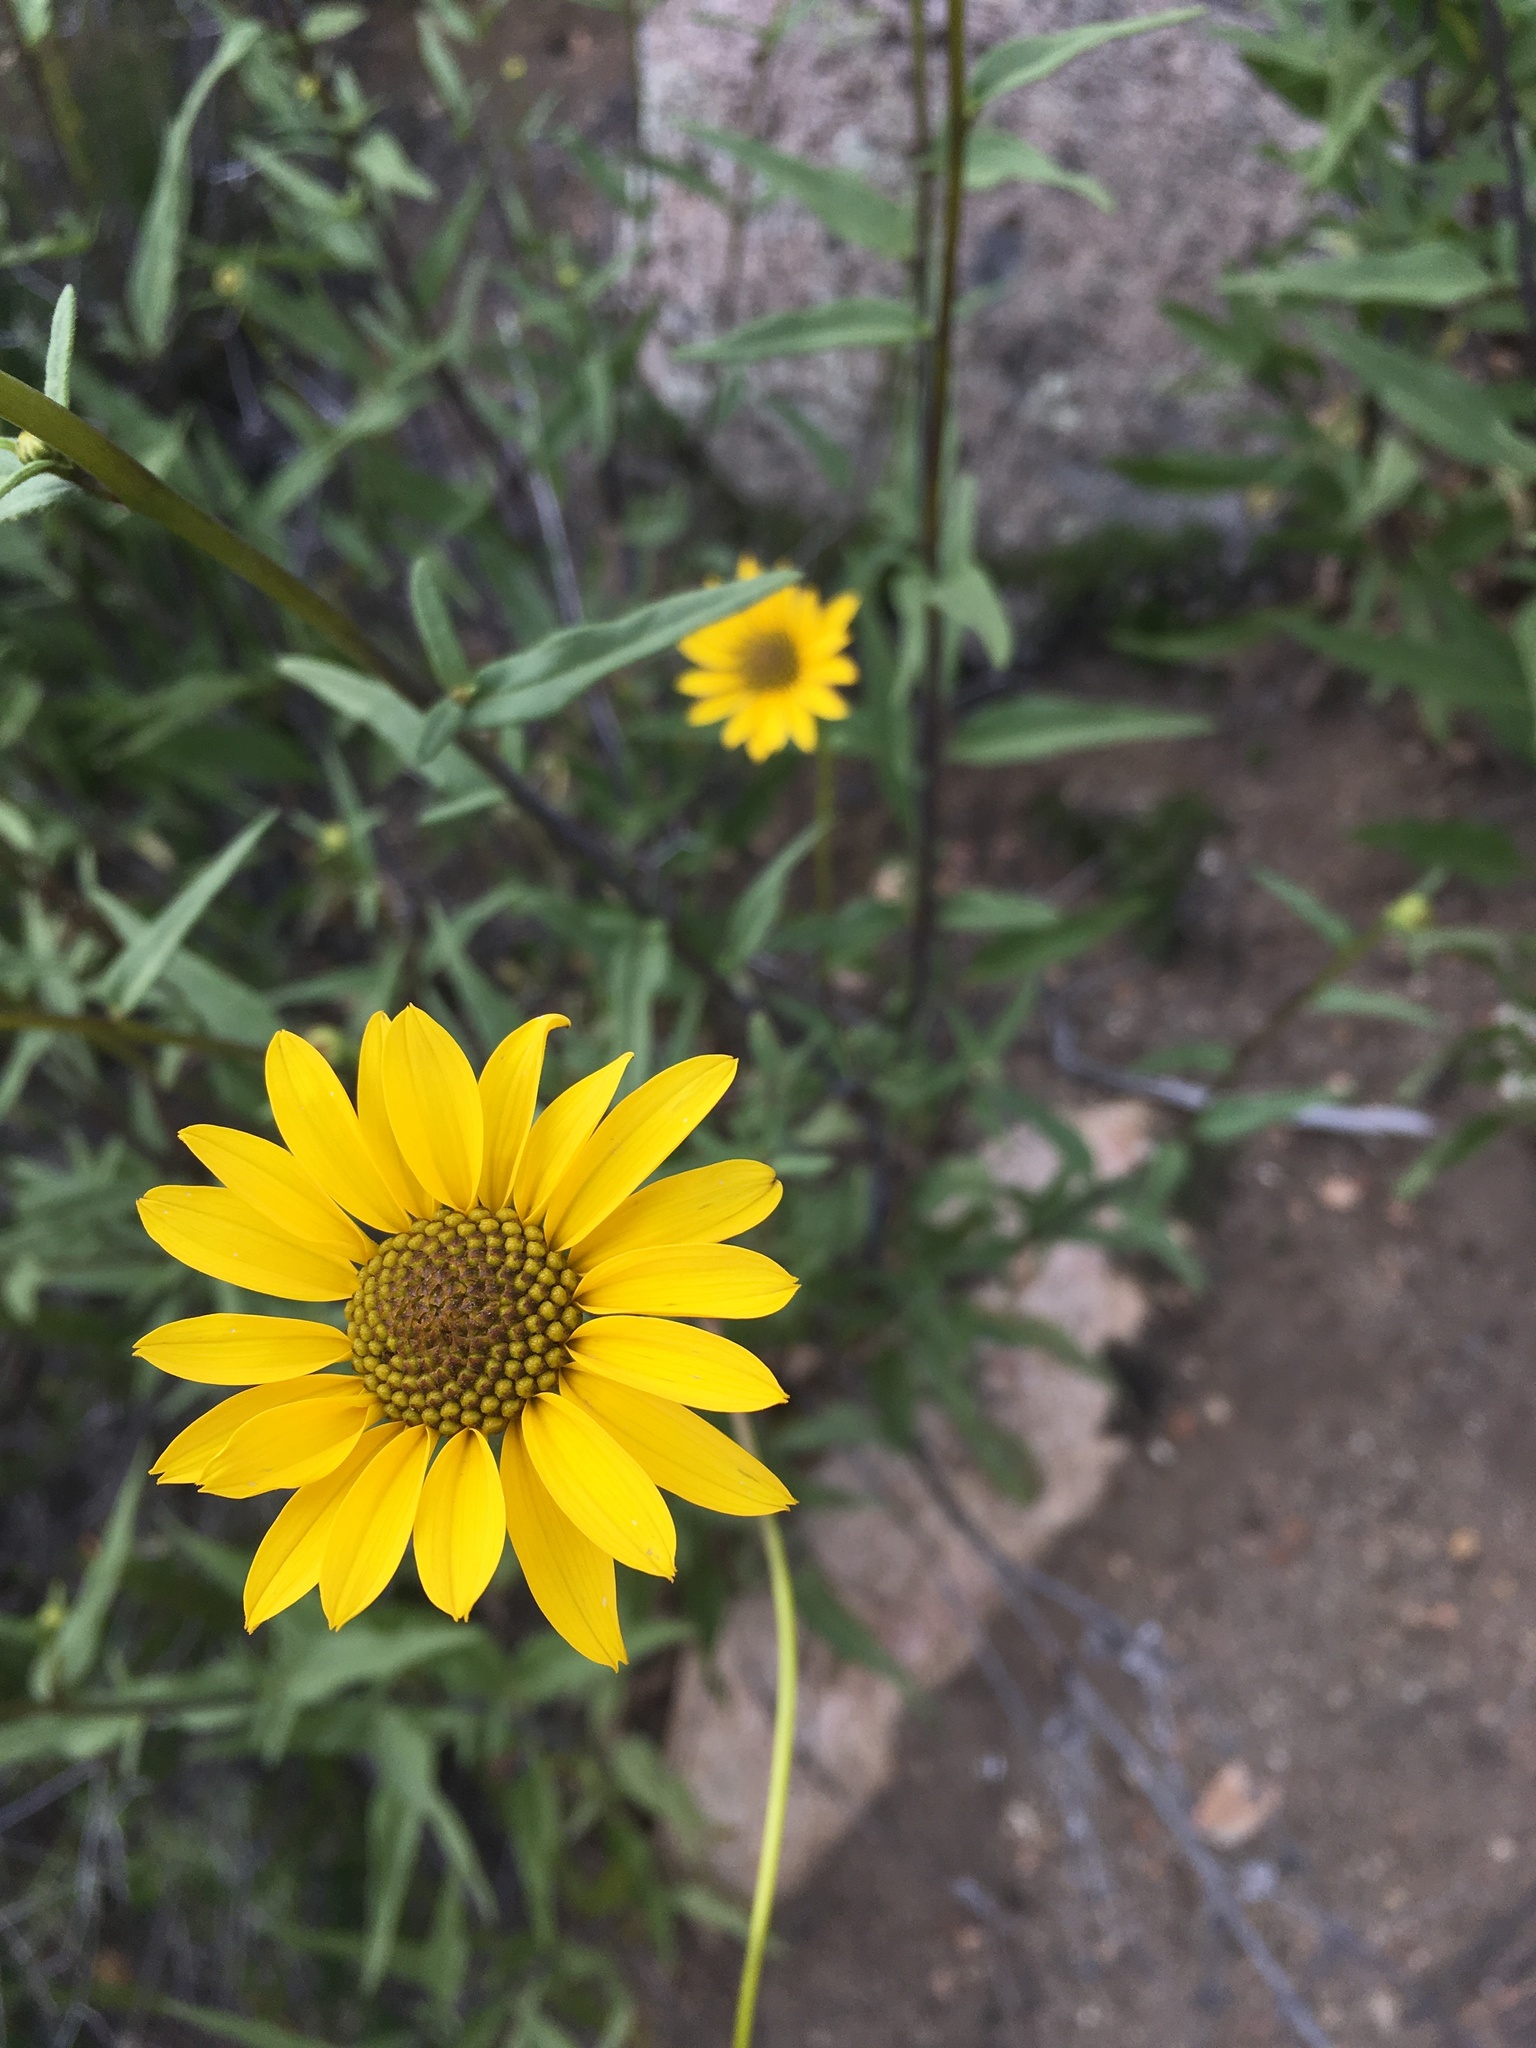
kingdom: Plantae
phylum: Tracheophyta
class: Magnoliopsida
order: Asterales
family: Asteraceae
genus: Helianthus
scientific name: Helianthus gracilentus
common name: Slender sunflower
